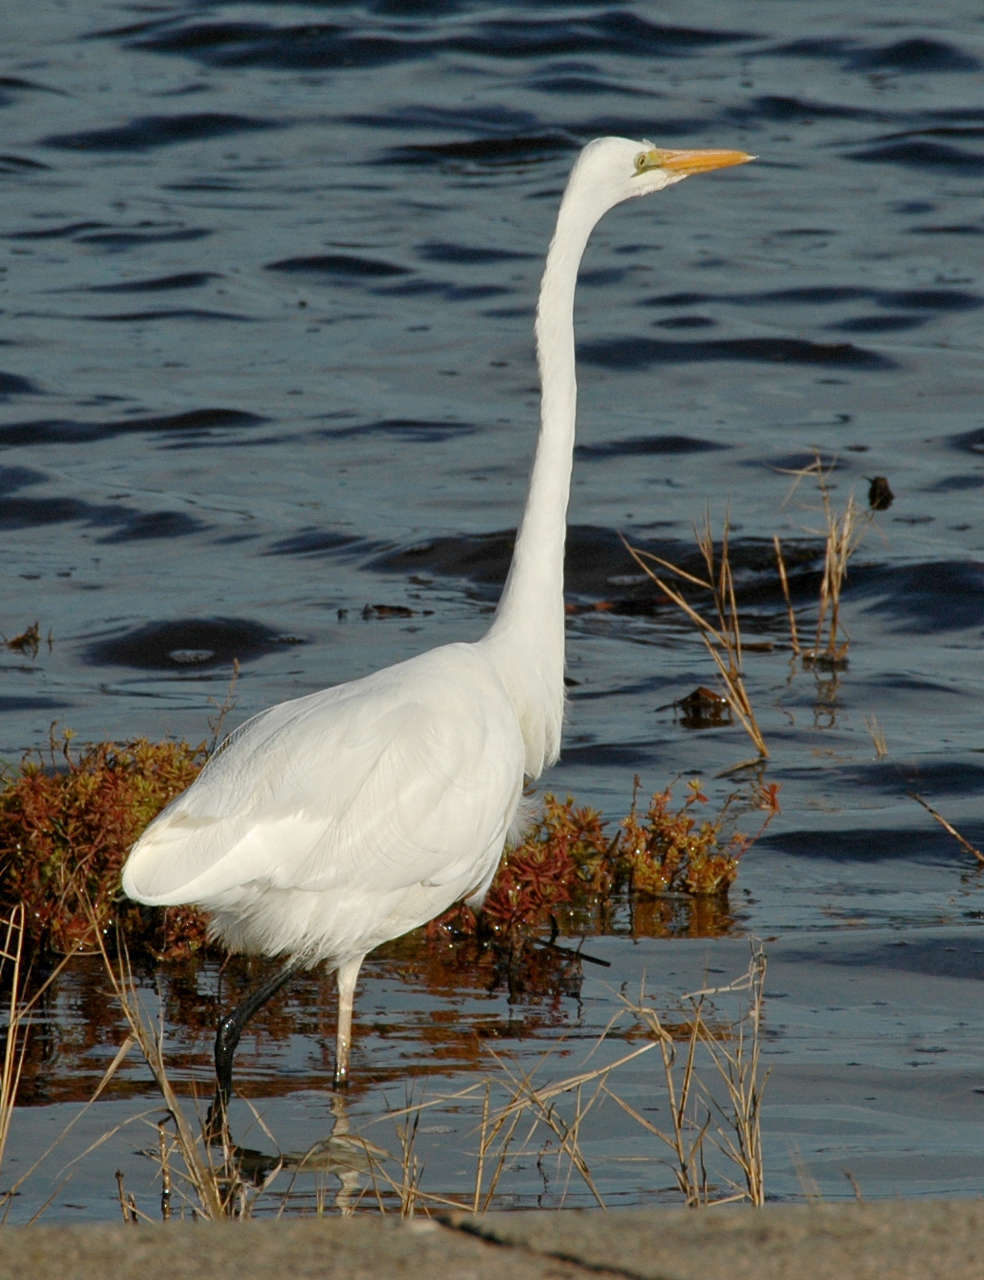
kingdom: Animalia
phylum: Chordata
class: Aves
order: Pelecaniformes
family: Ardeidae
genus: Ardea
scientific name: Ardea modesta
